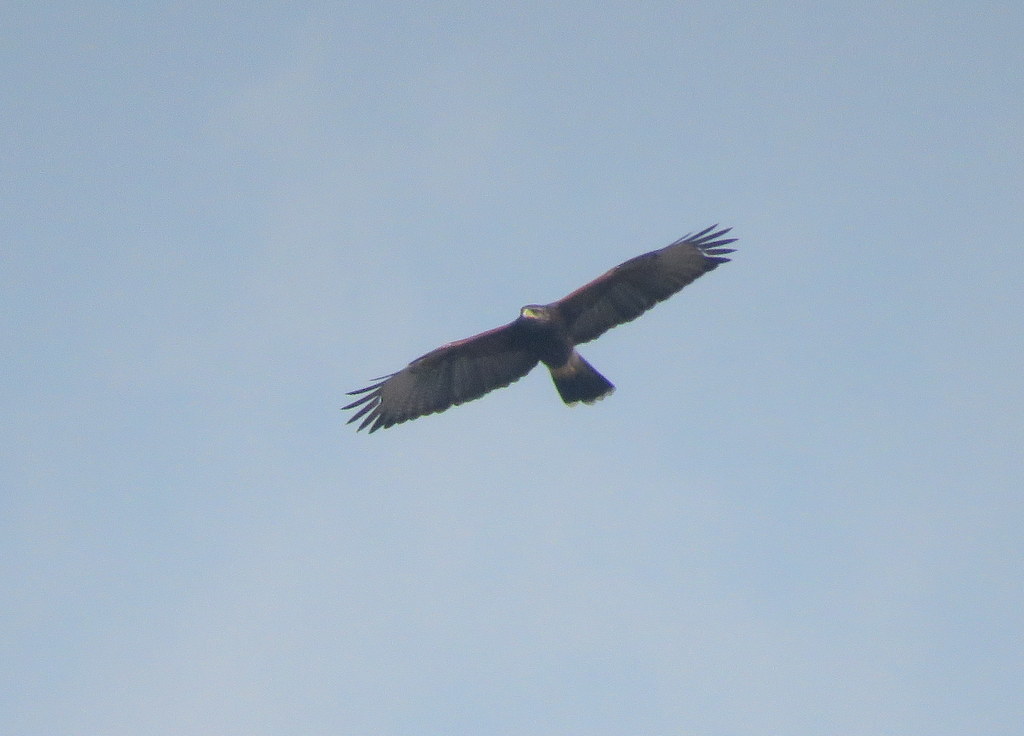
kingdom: Animalia
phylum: Chordata
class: Aves
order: Accipitriformes
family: Accipitridae
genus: Parabuteo
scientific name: Parabuteo unicinctus
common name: Harris's hawk
